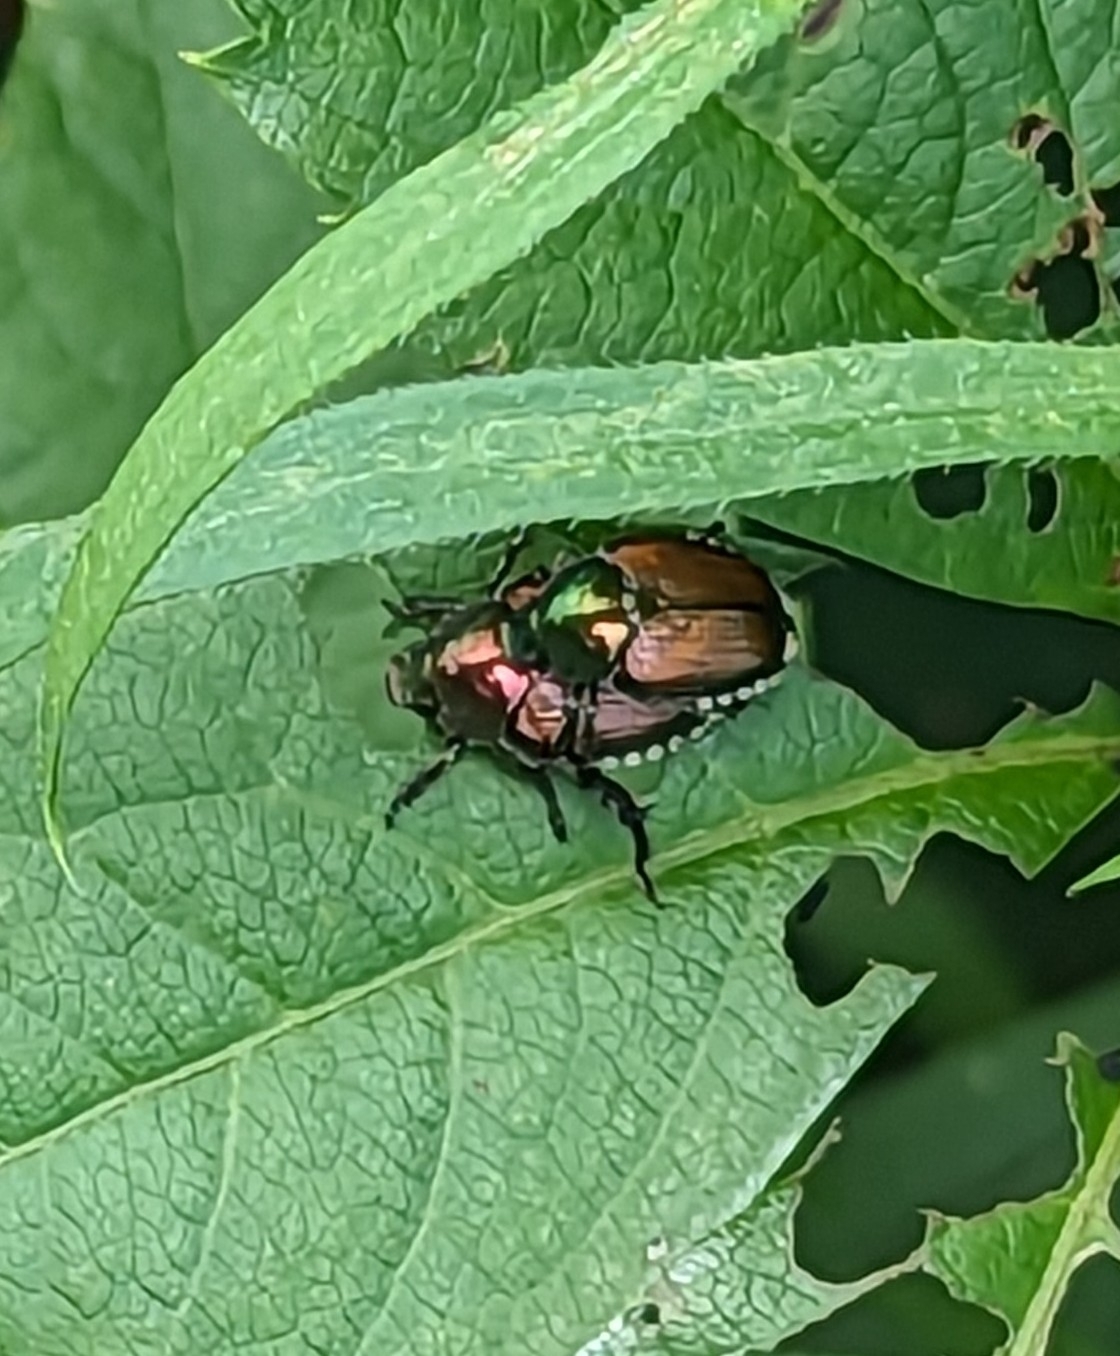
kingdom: Animalia
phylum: Arthropoda
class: Insecta
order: Coleoptera
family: Scarabaeidae
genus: Popillia
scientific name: Popillia japonica
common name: Japanese beetle
